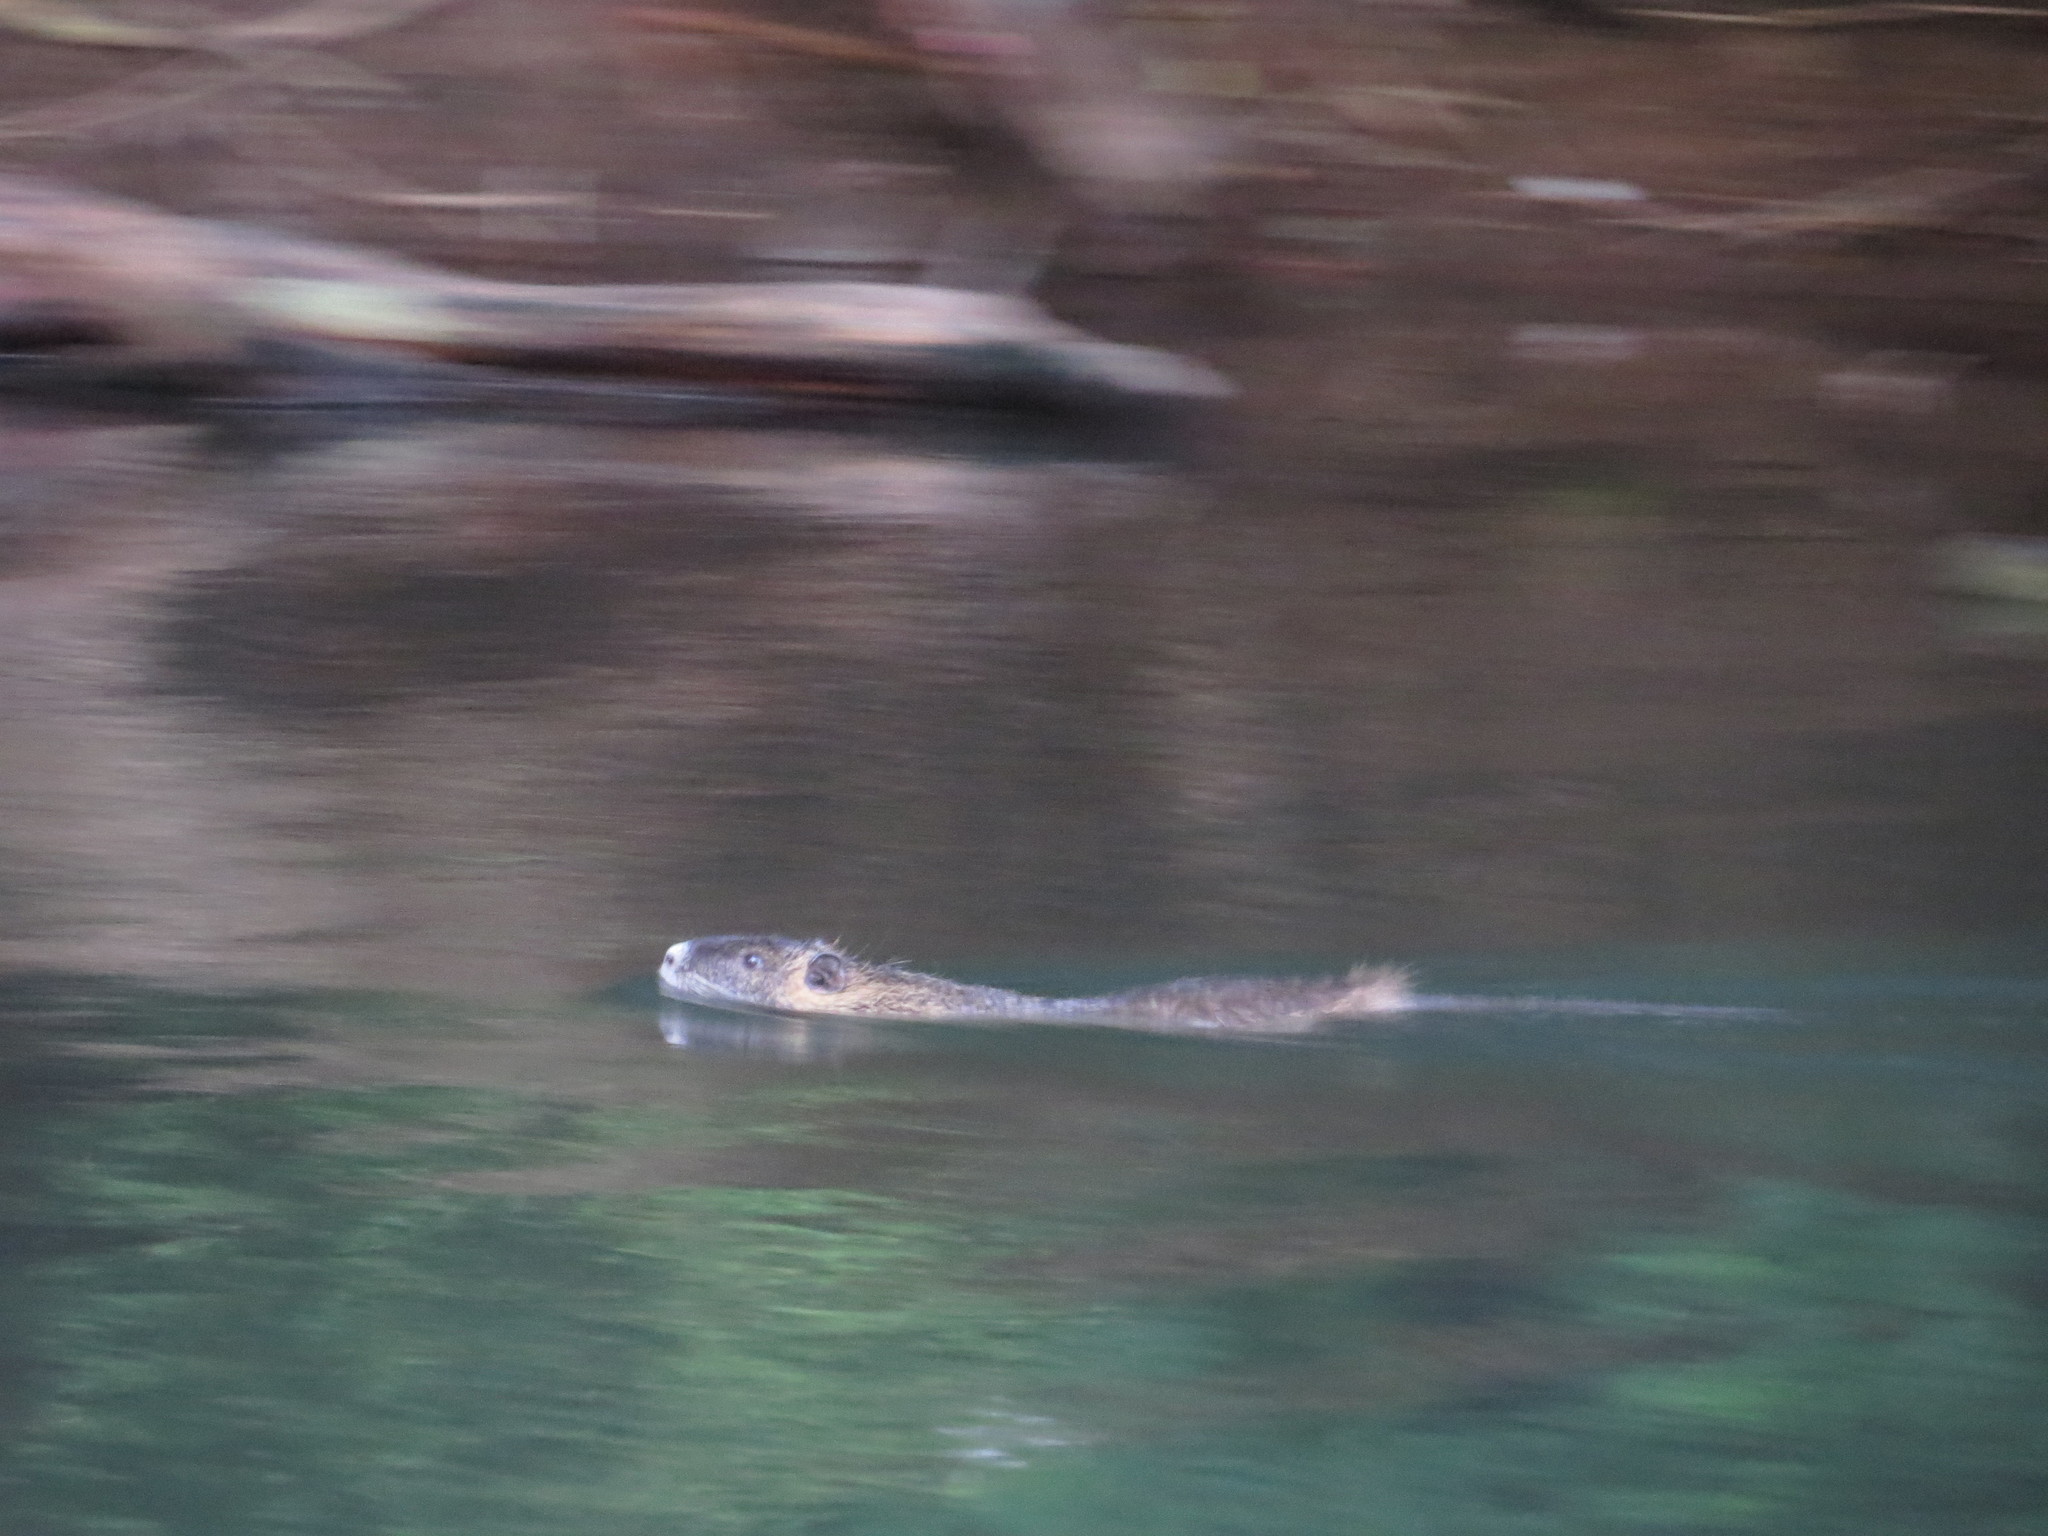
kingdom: Animalia
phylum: Chordata
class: Mammalia
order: Rodentia
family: Myocastoridae
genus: Myocastor
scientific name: Myocastor coypus
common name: Coypu
